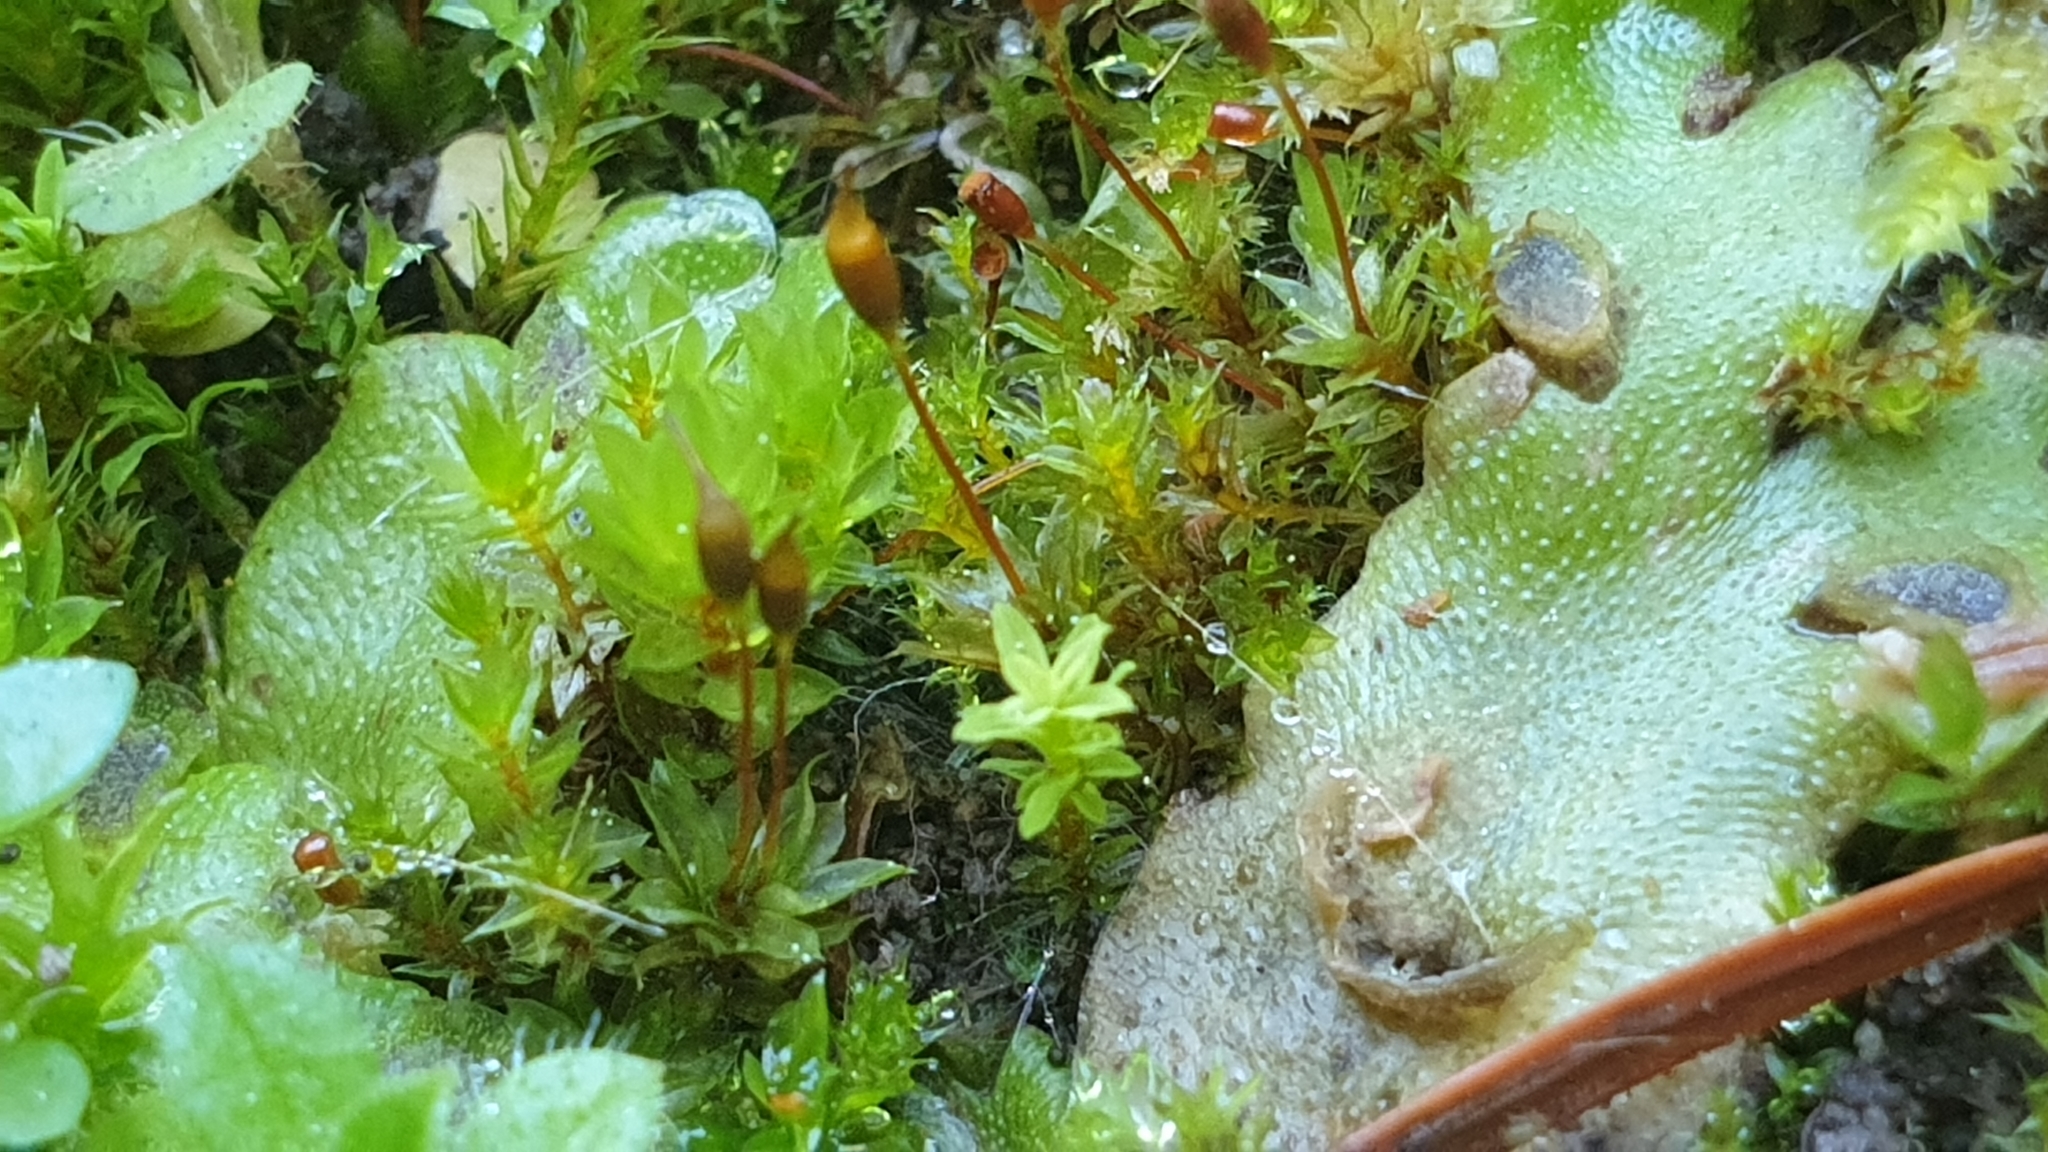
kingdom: Plantae
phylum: Bryophyta
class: Bryopsida
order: Pottiales
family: Pottiaceae
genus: Tortula
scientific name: Tortula truncata
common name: Truncated screw moss
